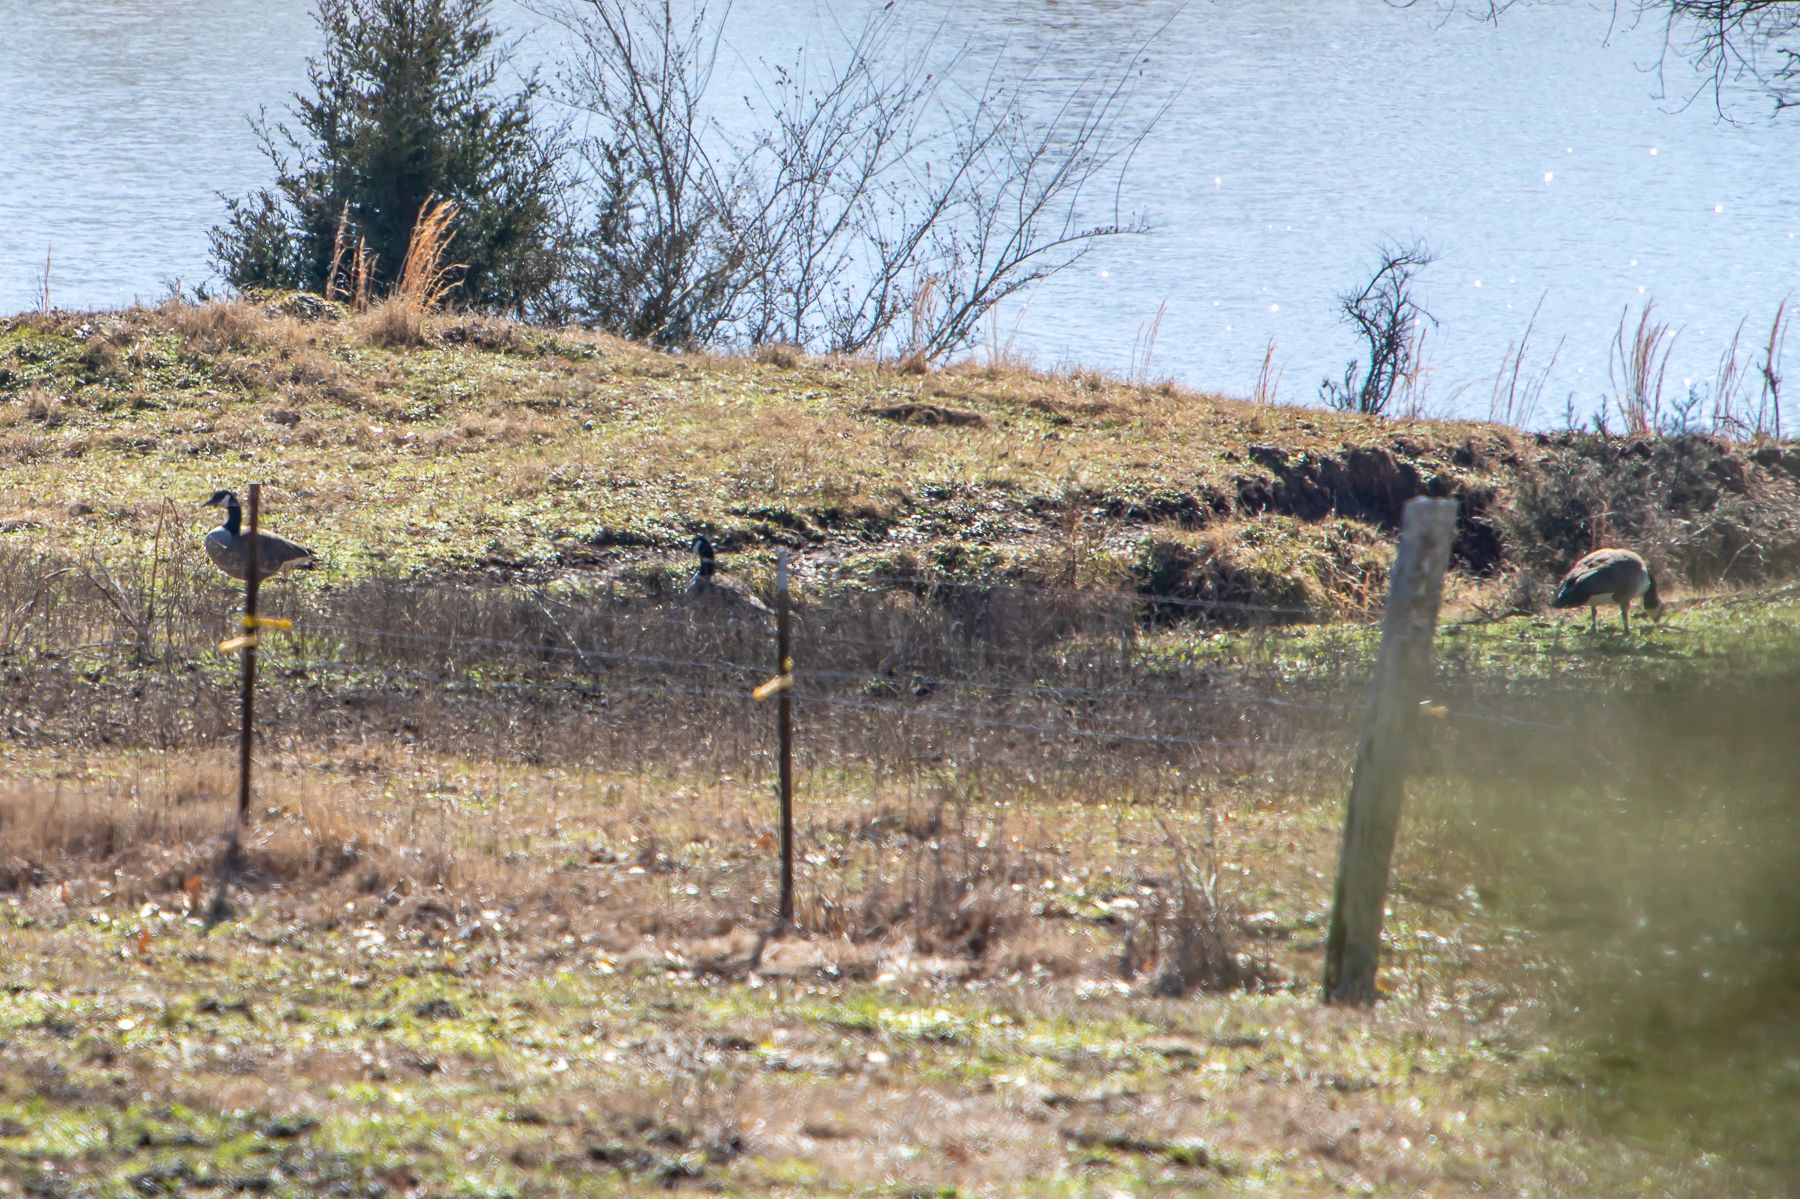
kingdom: Animalia
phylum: Chordata
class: Aves
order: Anseriformes
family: Anatidae
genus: Branta
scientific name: Branta canadensis
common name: Canada goose
